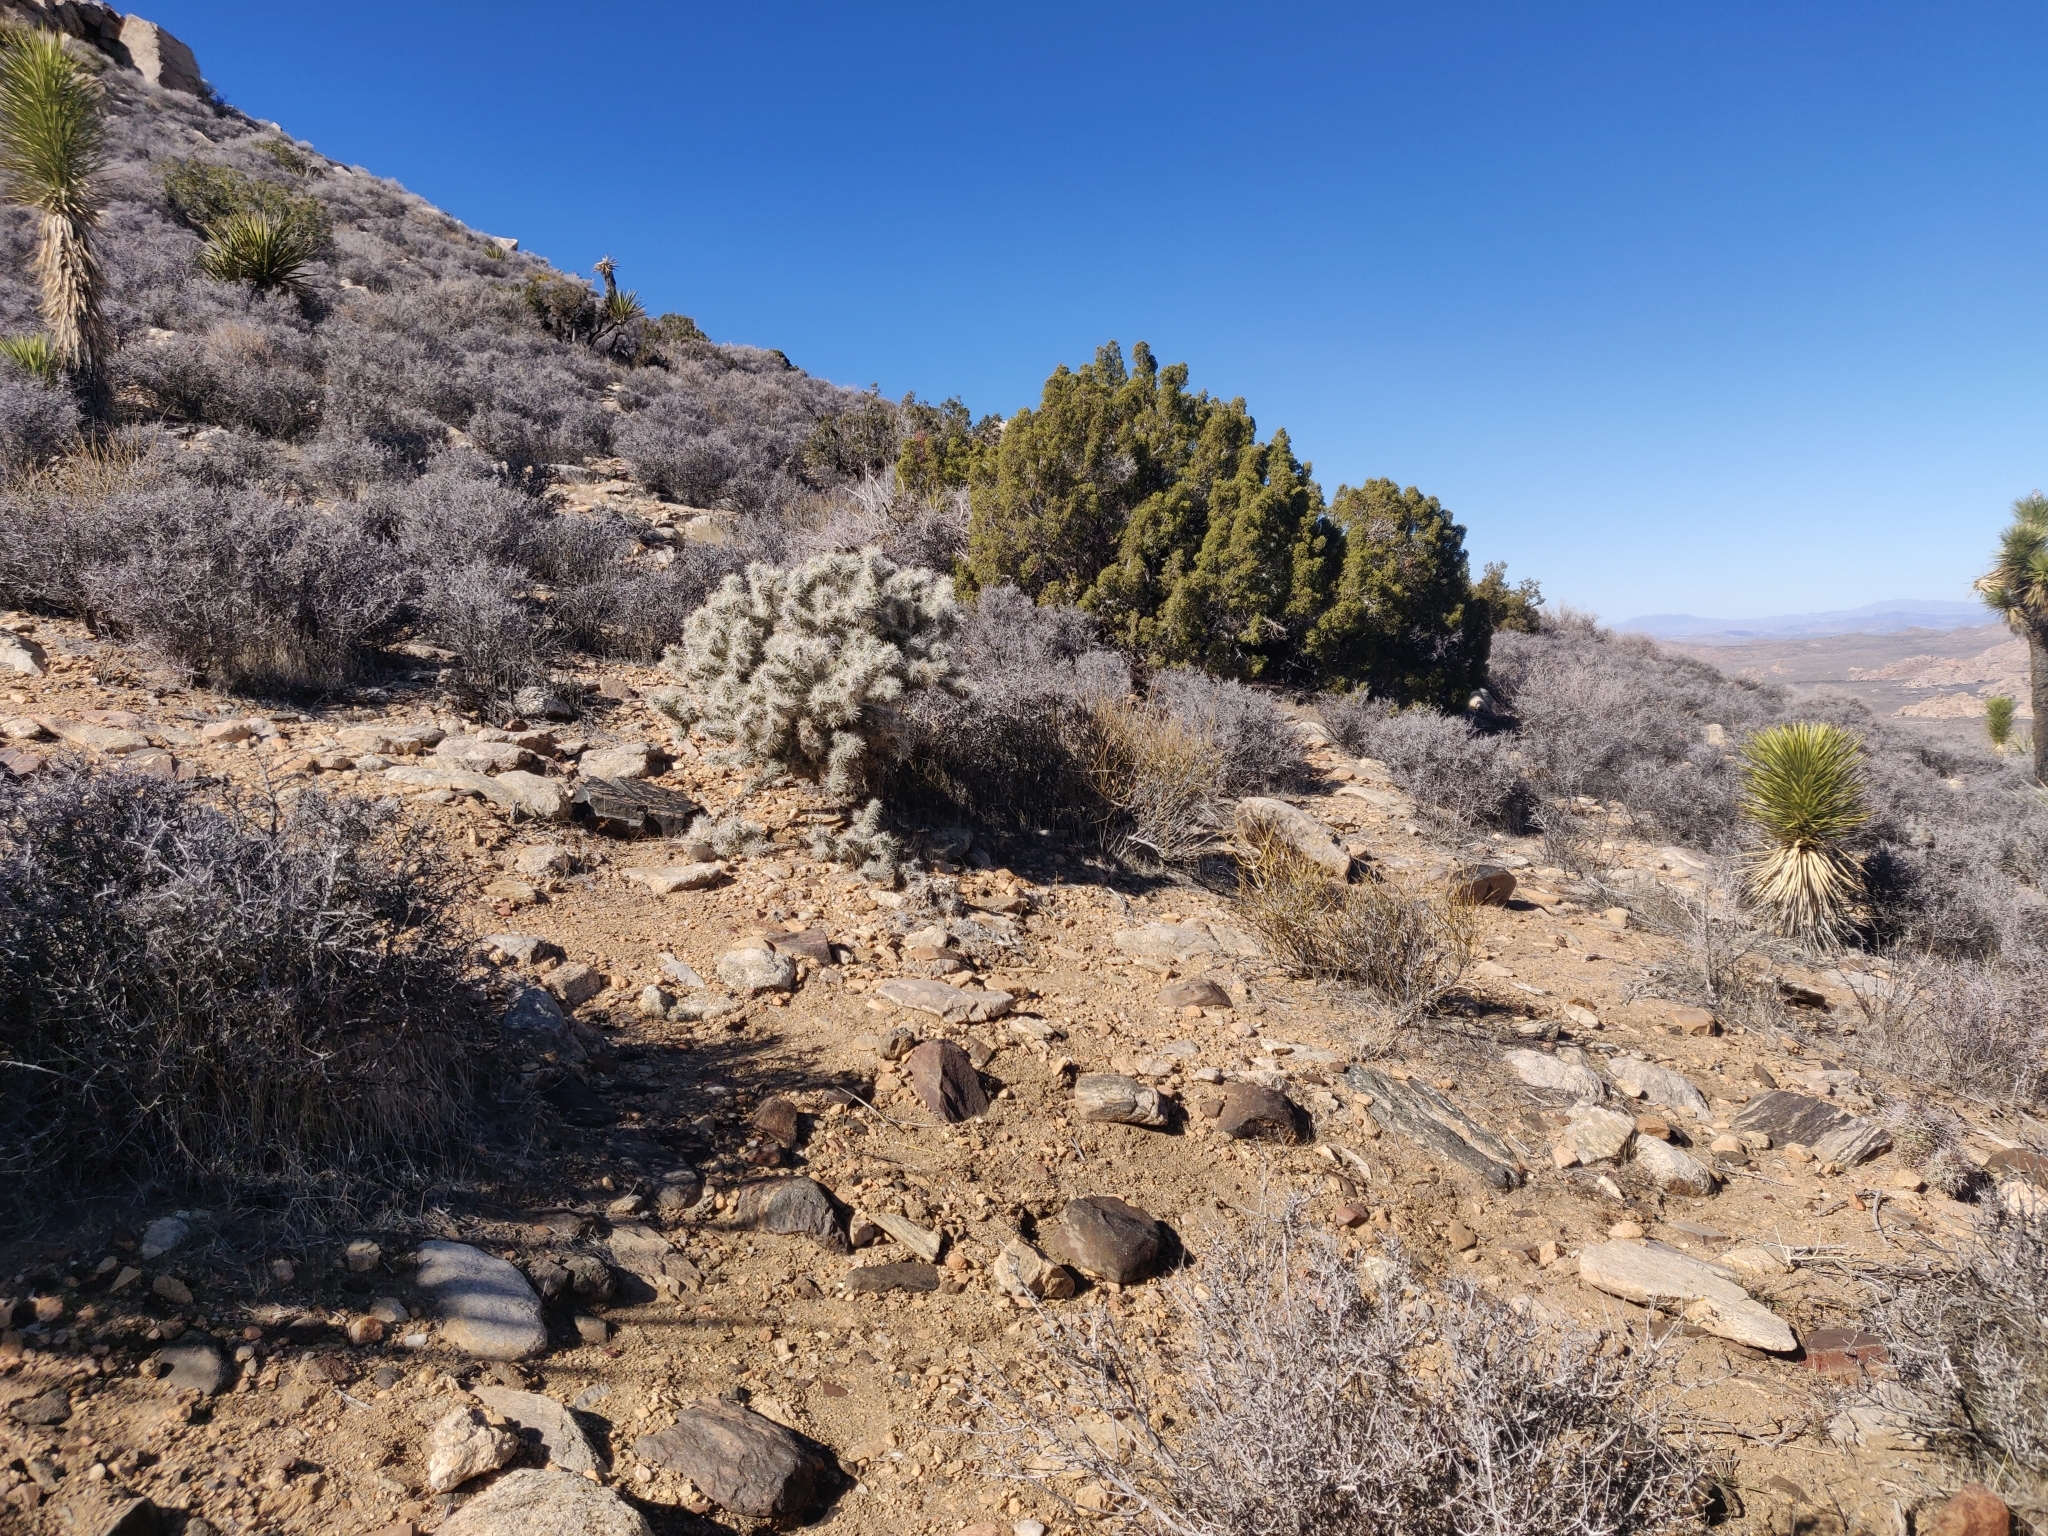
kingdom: Plantae
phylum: Tracheophyta
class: Magnoliopsida
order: Caryophyllales
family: Cactaceae
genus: Cylindropuntia
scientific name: Cylindropuntia echinocarpa
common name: Ground cholla
